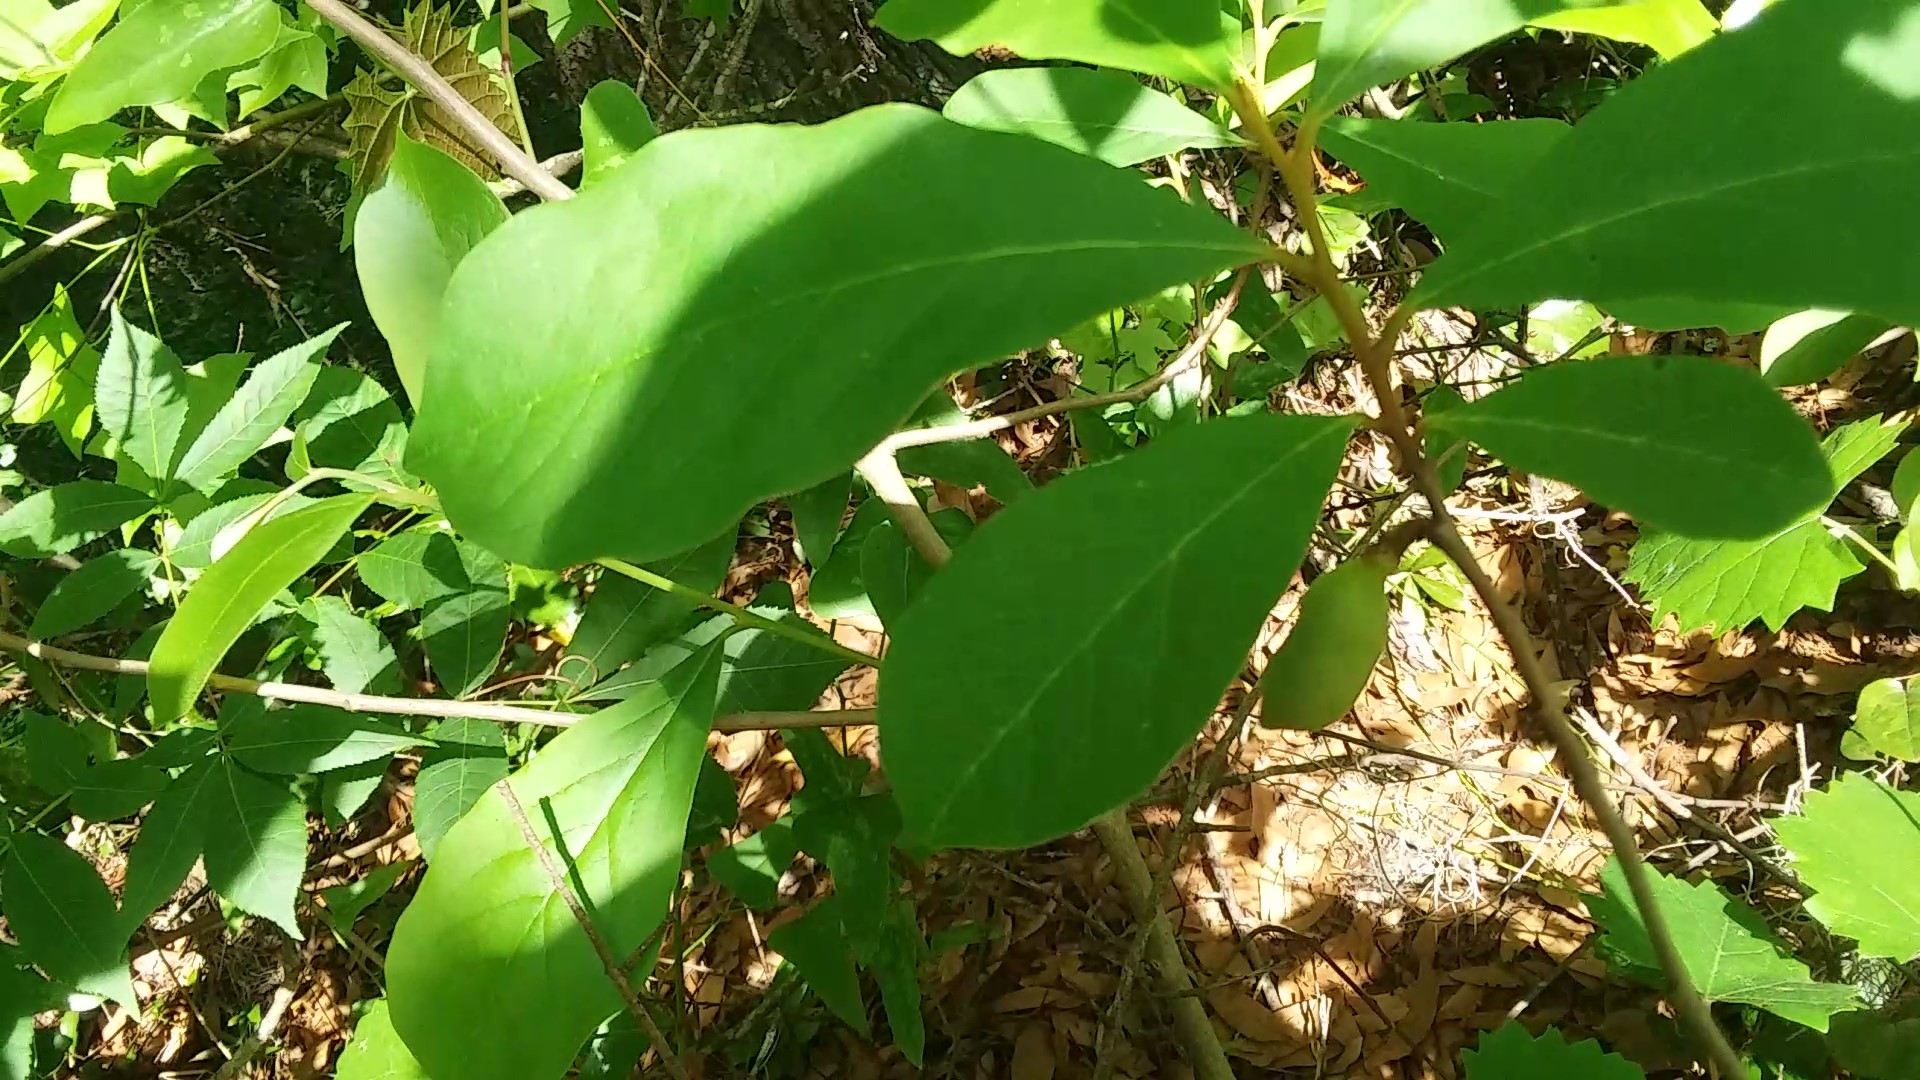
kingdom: Plantae
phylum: Tracheophyta
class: Magnoliopsida
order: Magnoliales
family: Annonaceae
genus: Asimina
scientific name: Asimina parviflora
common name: Dwarf pawpaw
